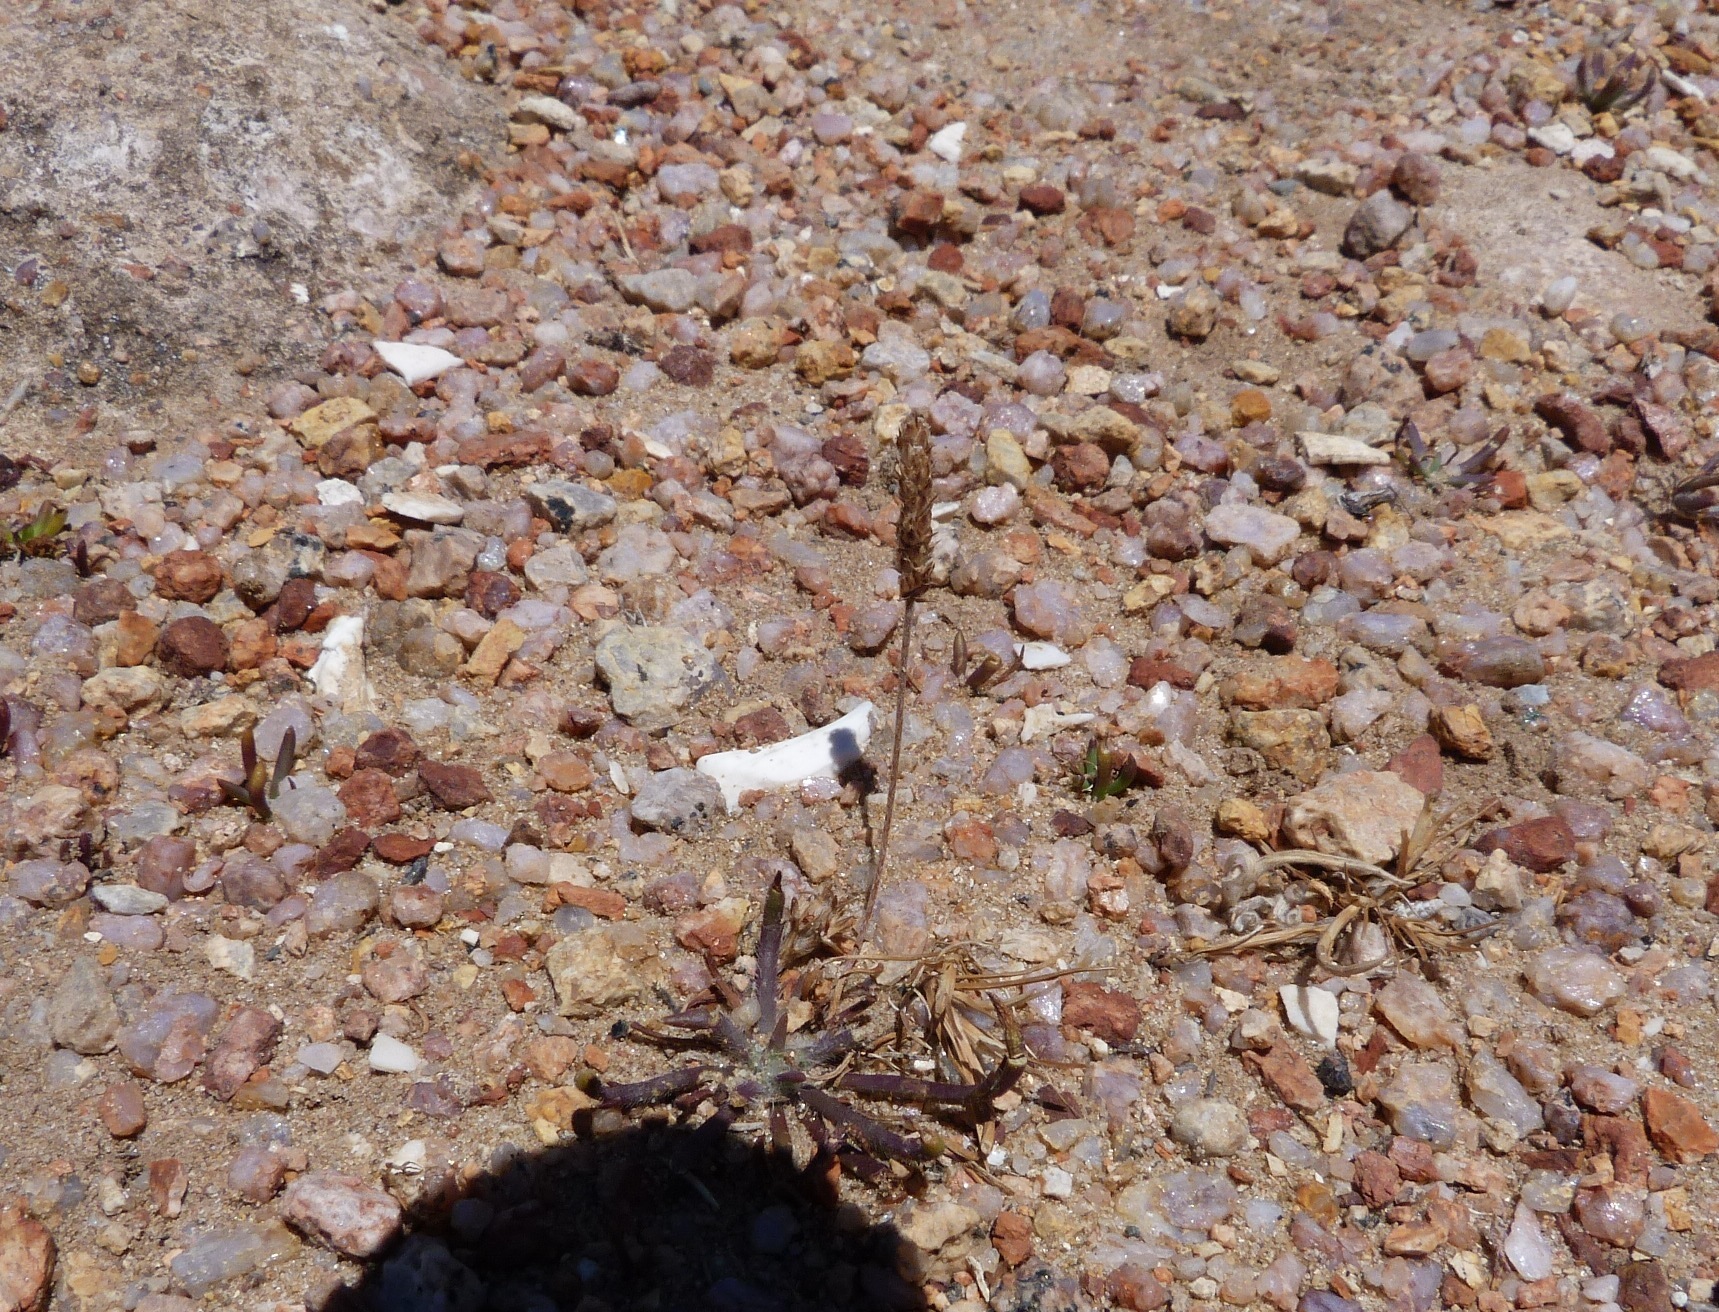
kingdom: Plantae
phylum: Tracheophyta
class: Magnoliopsida
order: Lamiales
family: Plantaginaceae
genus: Plantago
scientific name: Plantago coronopus
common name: Buck's-horn plantain
